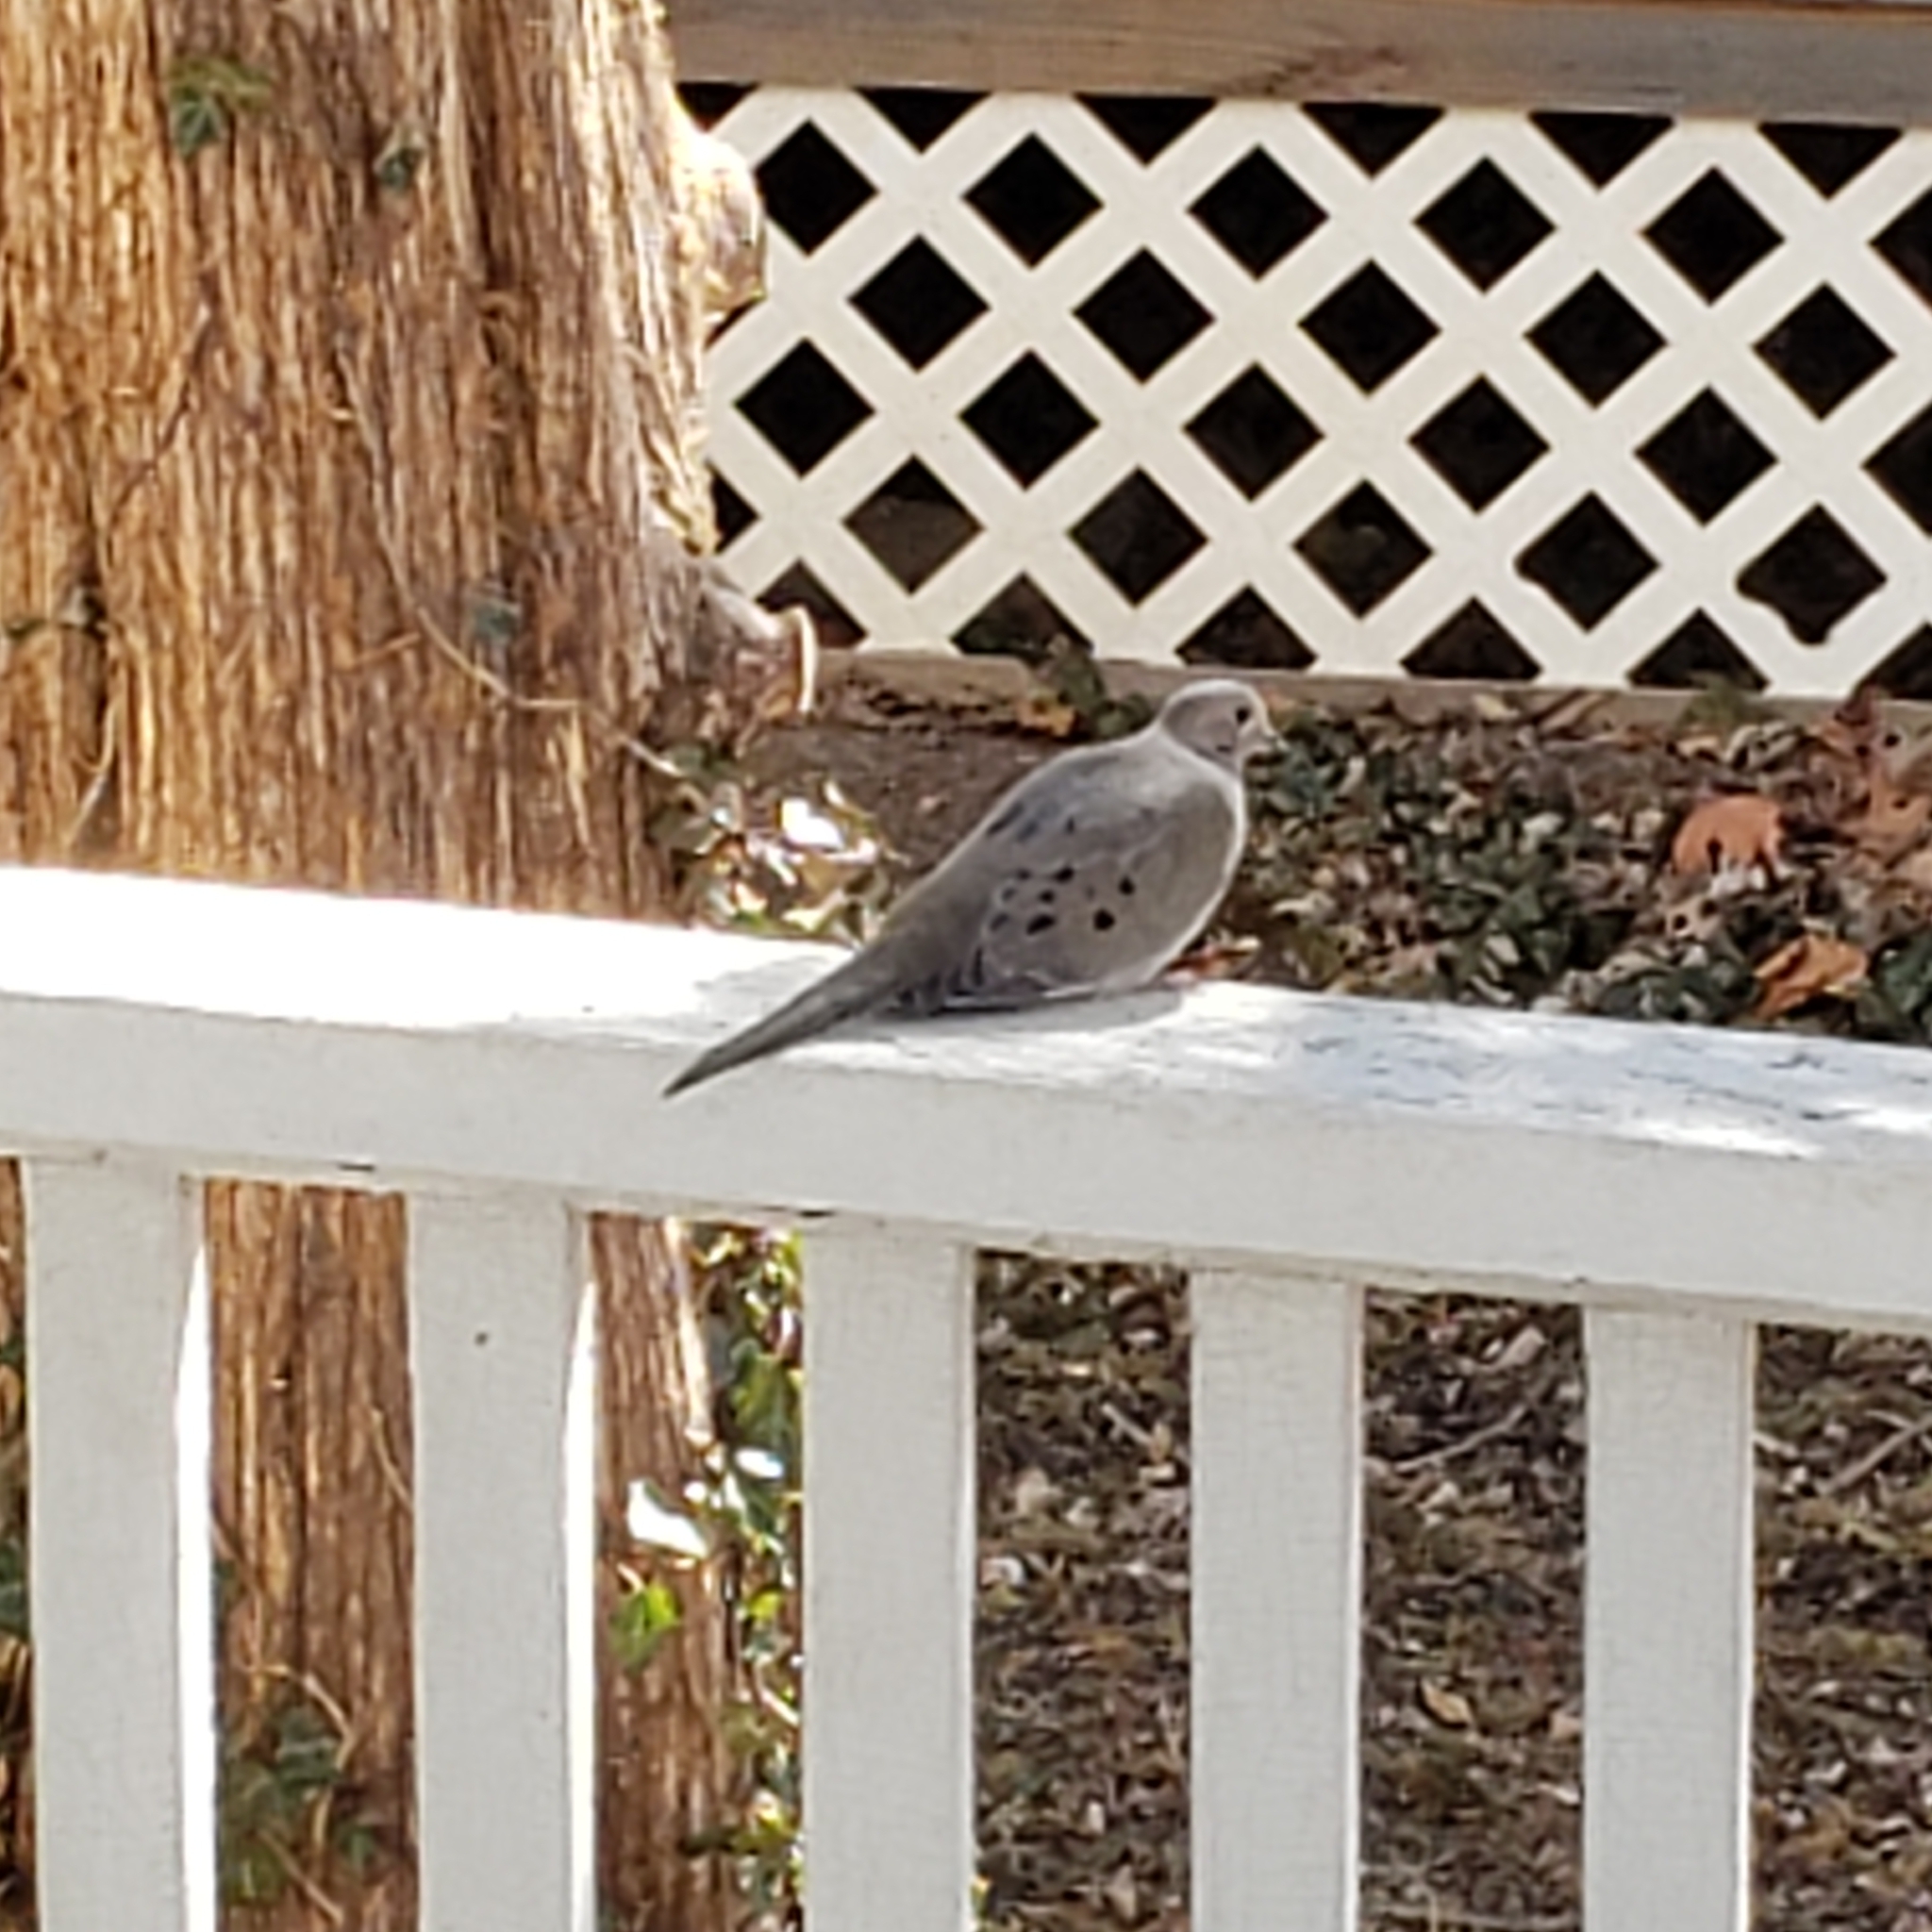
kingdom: Animalia
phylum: Chordata
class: Aves
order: Columbiformes
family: Columbidae
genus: Zenaida
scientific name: Zenaida macroura
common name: Mourning dove
